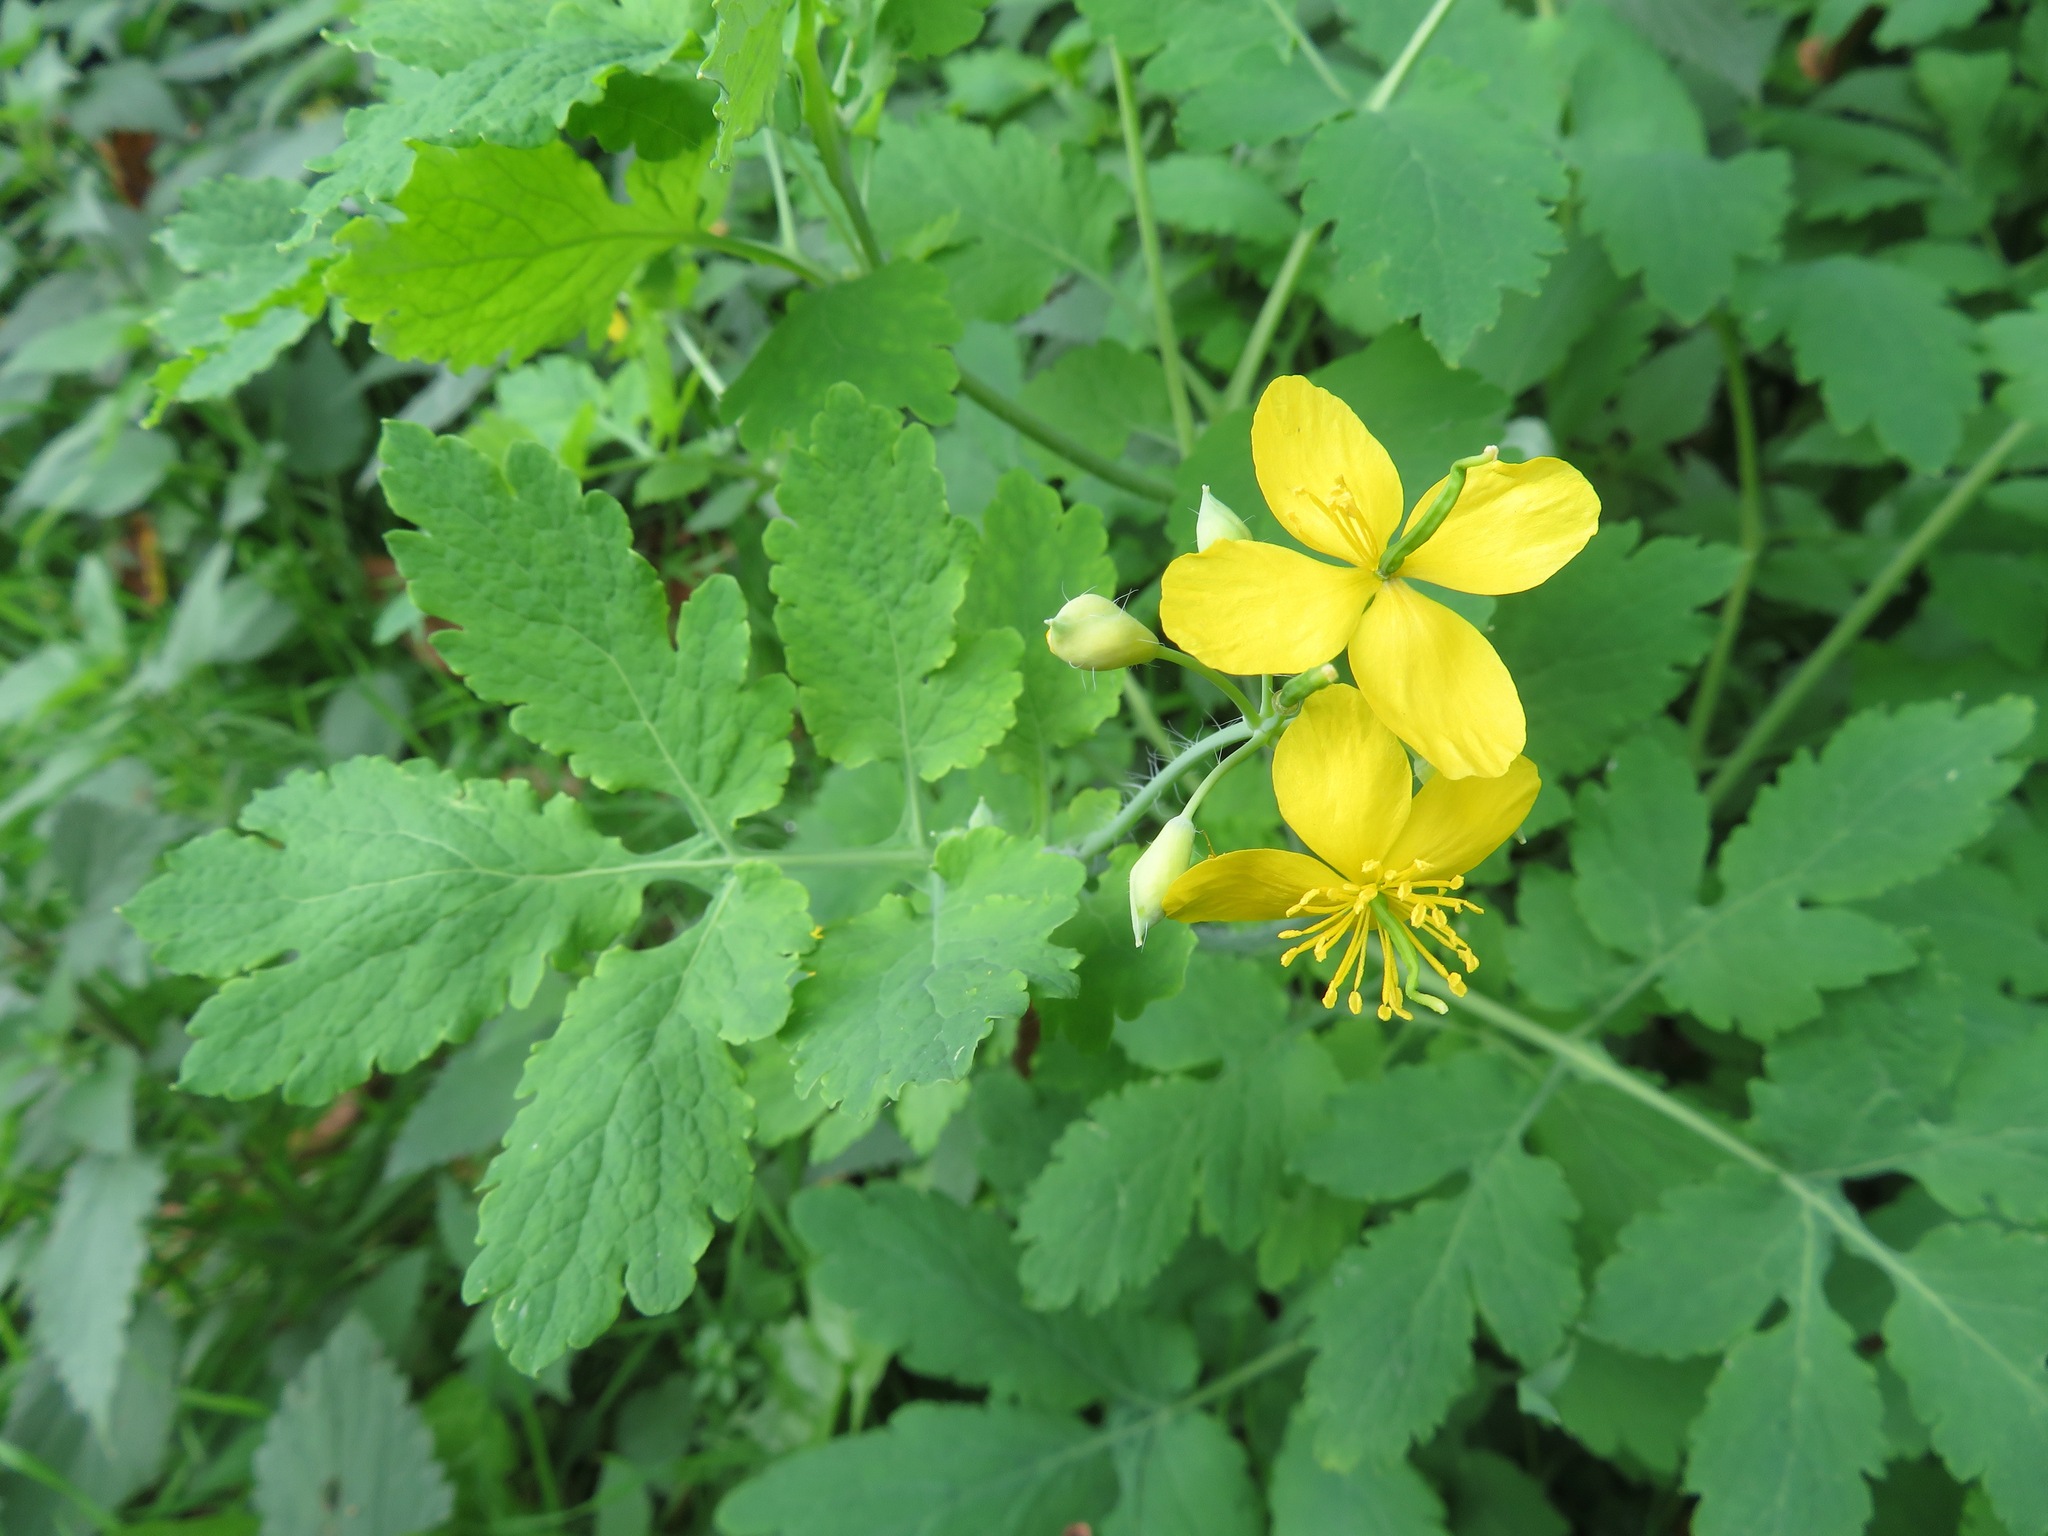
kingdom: Plantae
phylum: Tracheophyta
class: Magnoliopsida
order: Ranunculales
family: Papaveraceae
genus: Chelidonium
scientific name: Chelidonium majus
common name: Greater celandine
